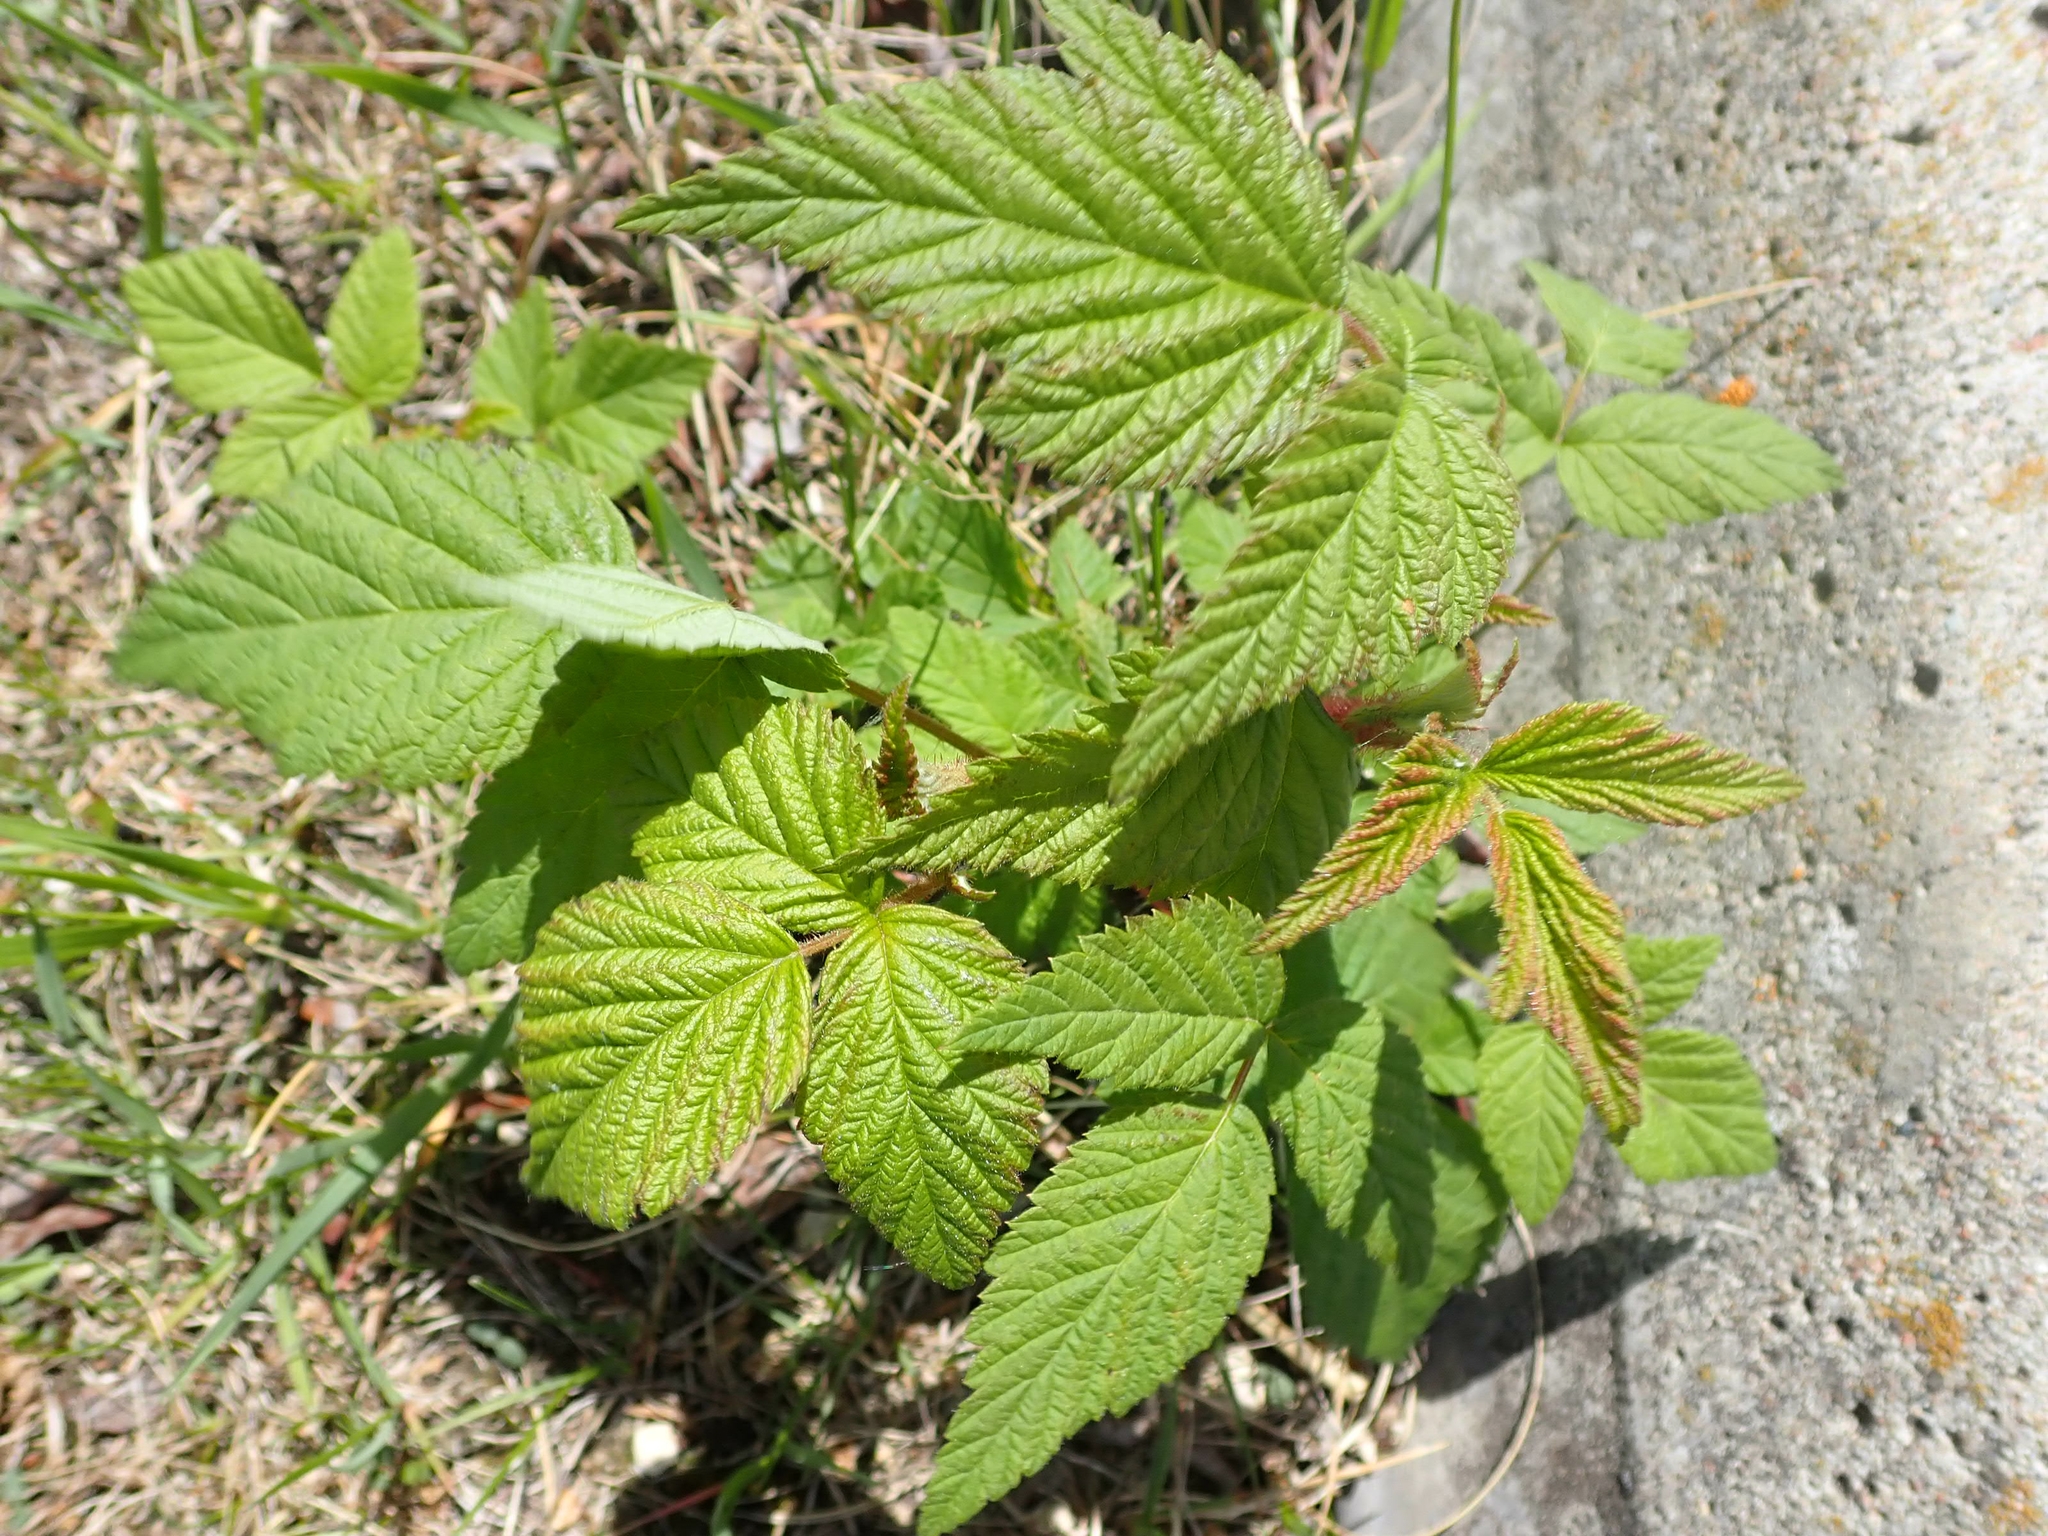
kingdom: Plantae
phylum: Tracheophyta
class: Magnoliopsida
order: Rosales
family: Rosaceae
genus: Rubus
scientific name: Rubus idaeus
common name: Raspberry
